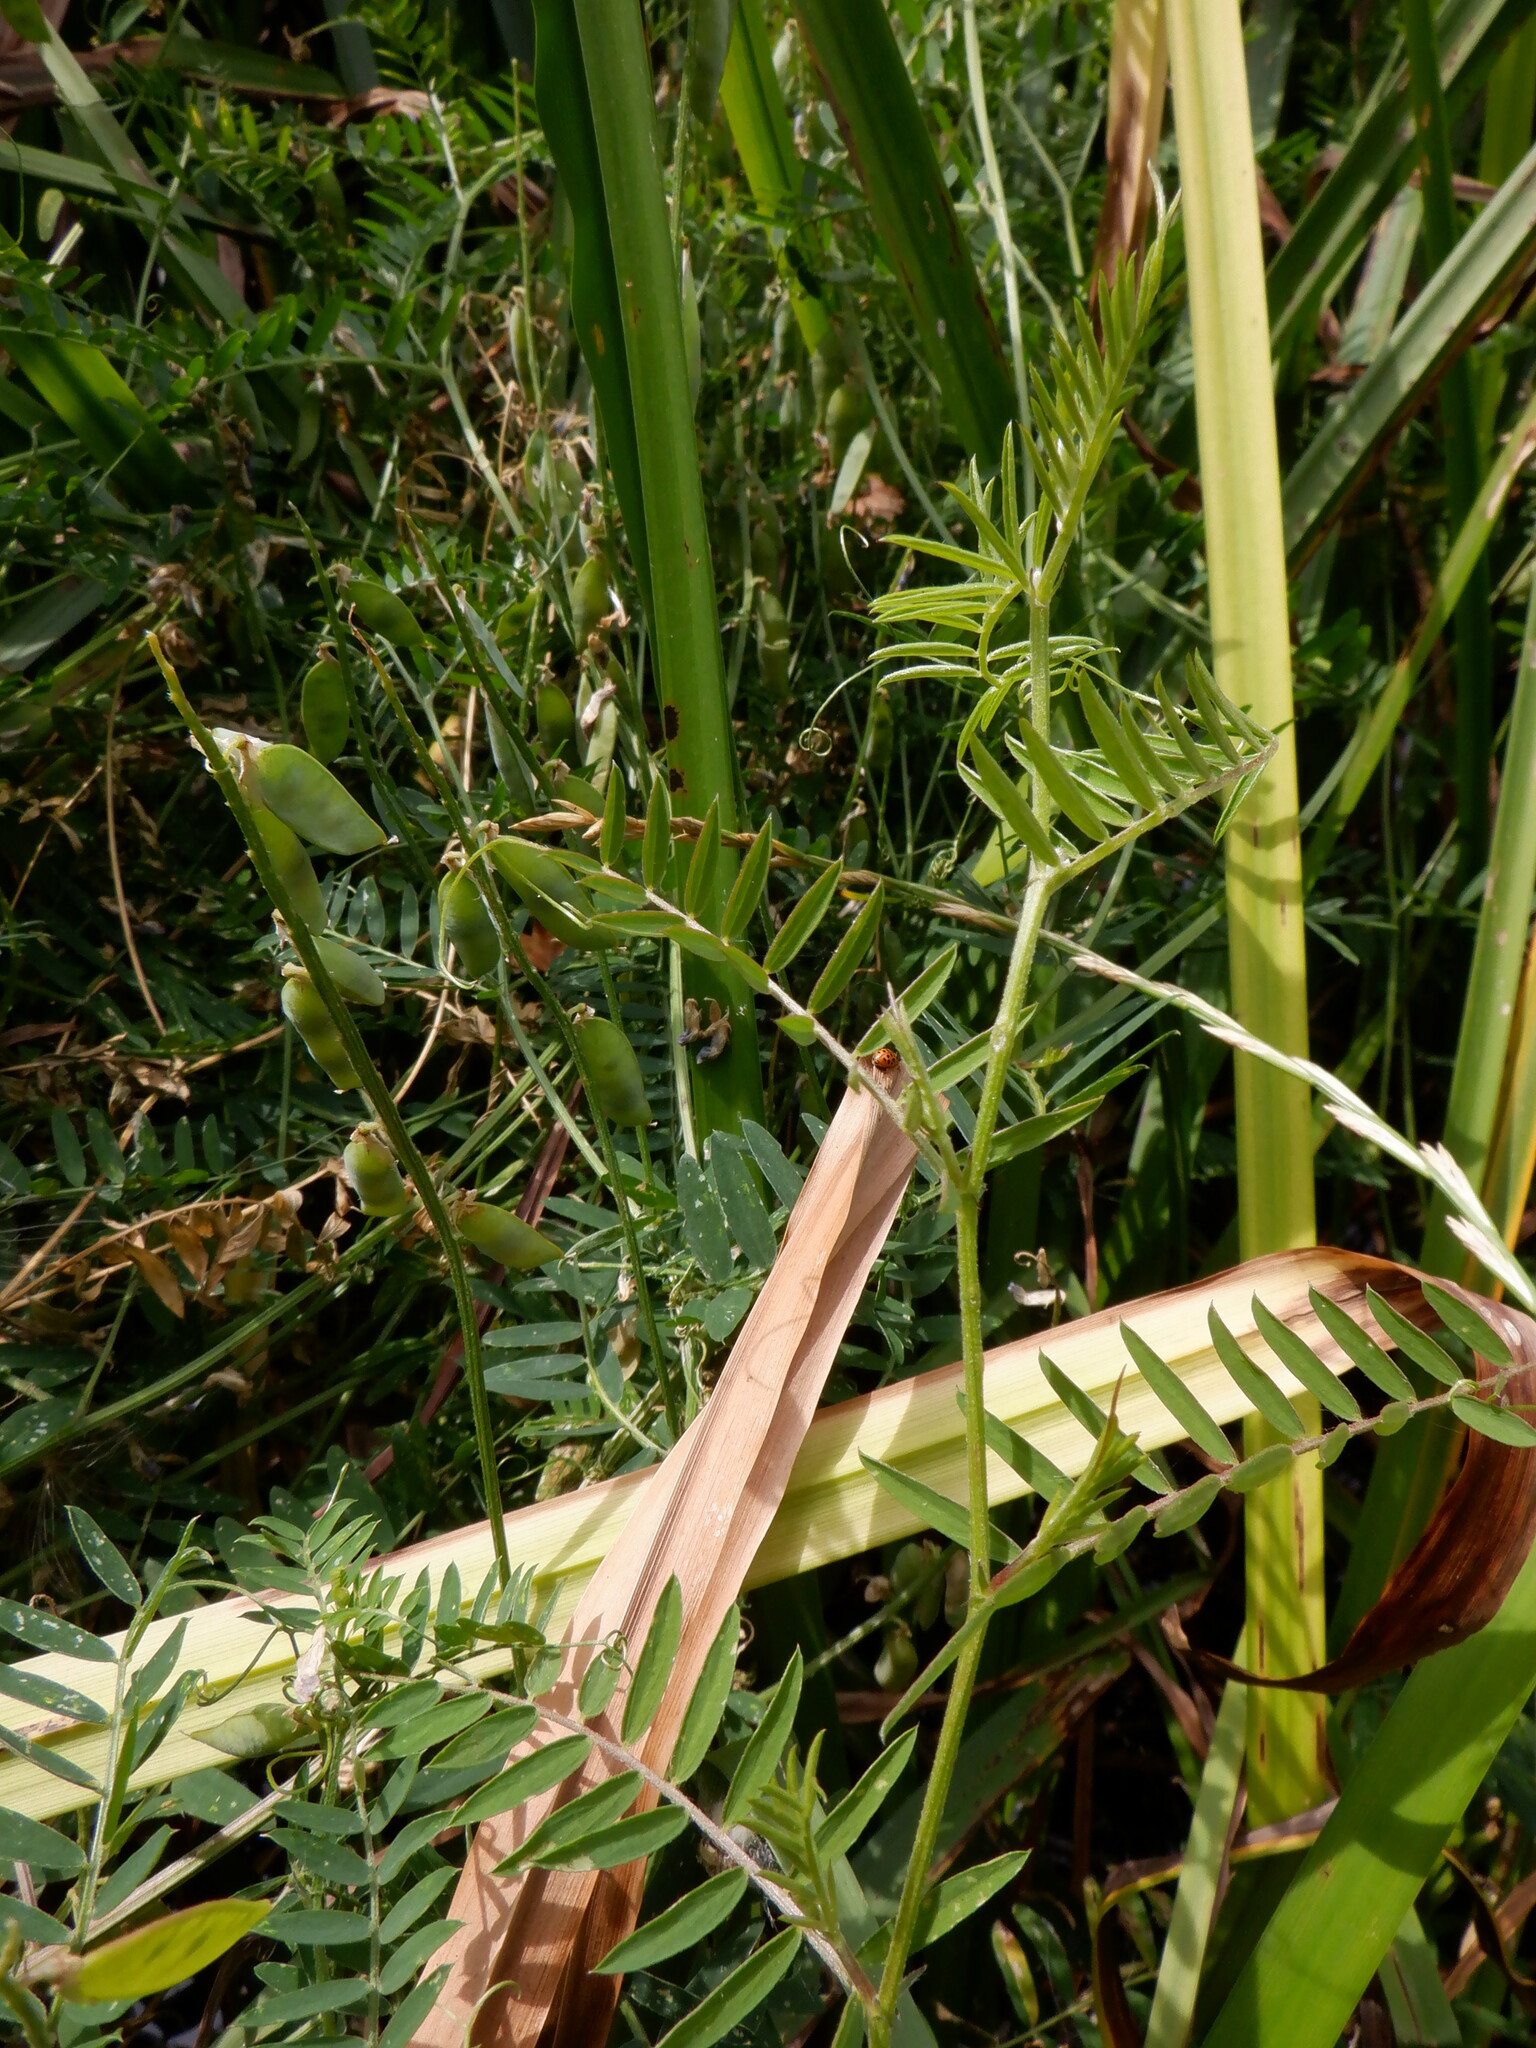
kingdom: Plantae
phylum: Tracheophyta
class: Magnoliopsida
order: Fabales
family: Fabaceae
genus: Vicia
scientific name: Vicia cracca
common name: Bird vetch
